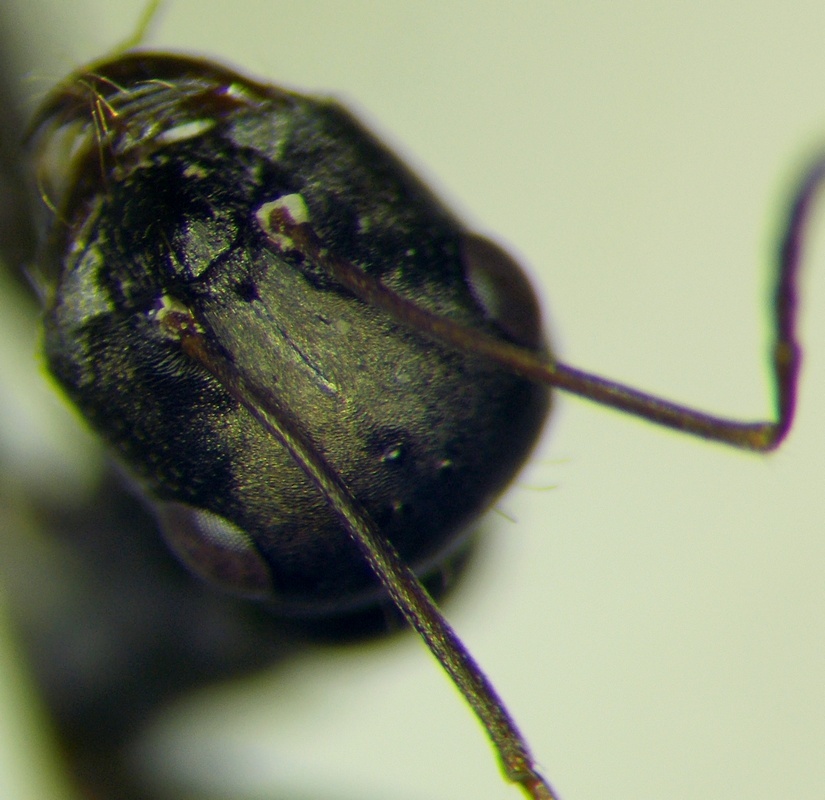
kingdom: Animalia
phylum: Arthropoda
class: Insecta
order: Hymenoptera
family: Formicidae
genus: Cataglyphis
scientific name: Cataglyphis aenescens
